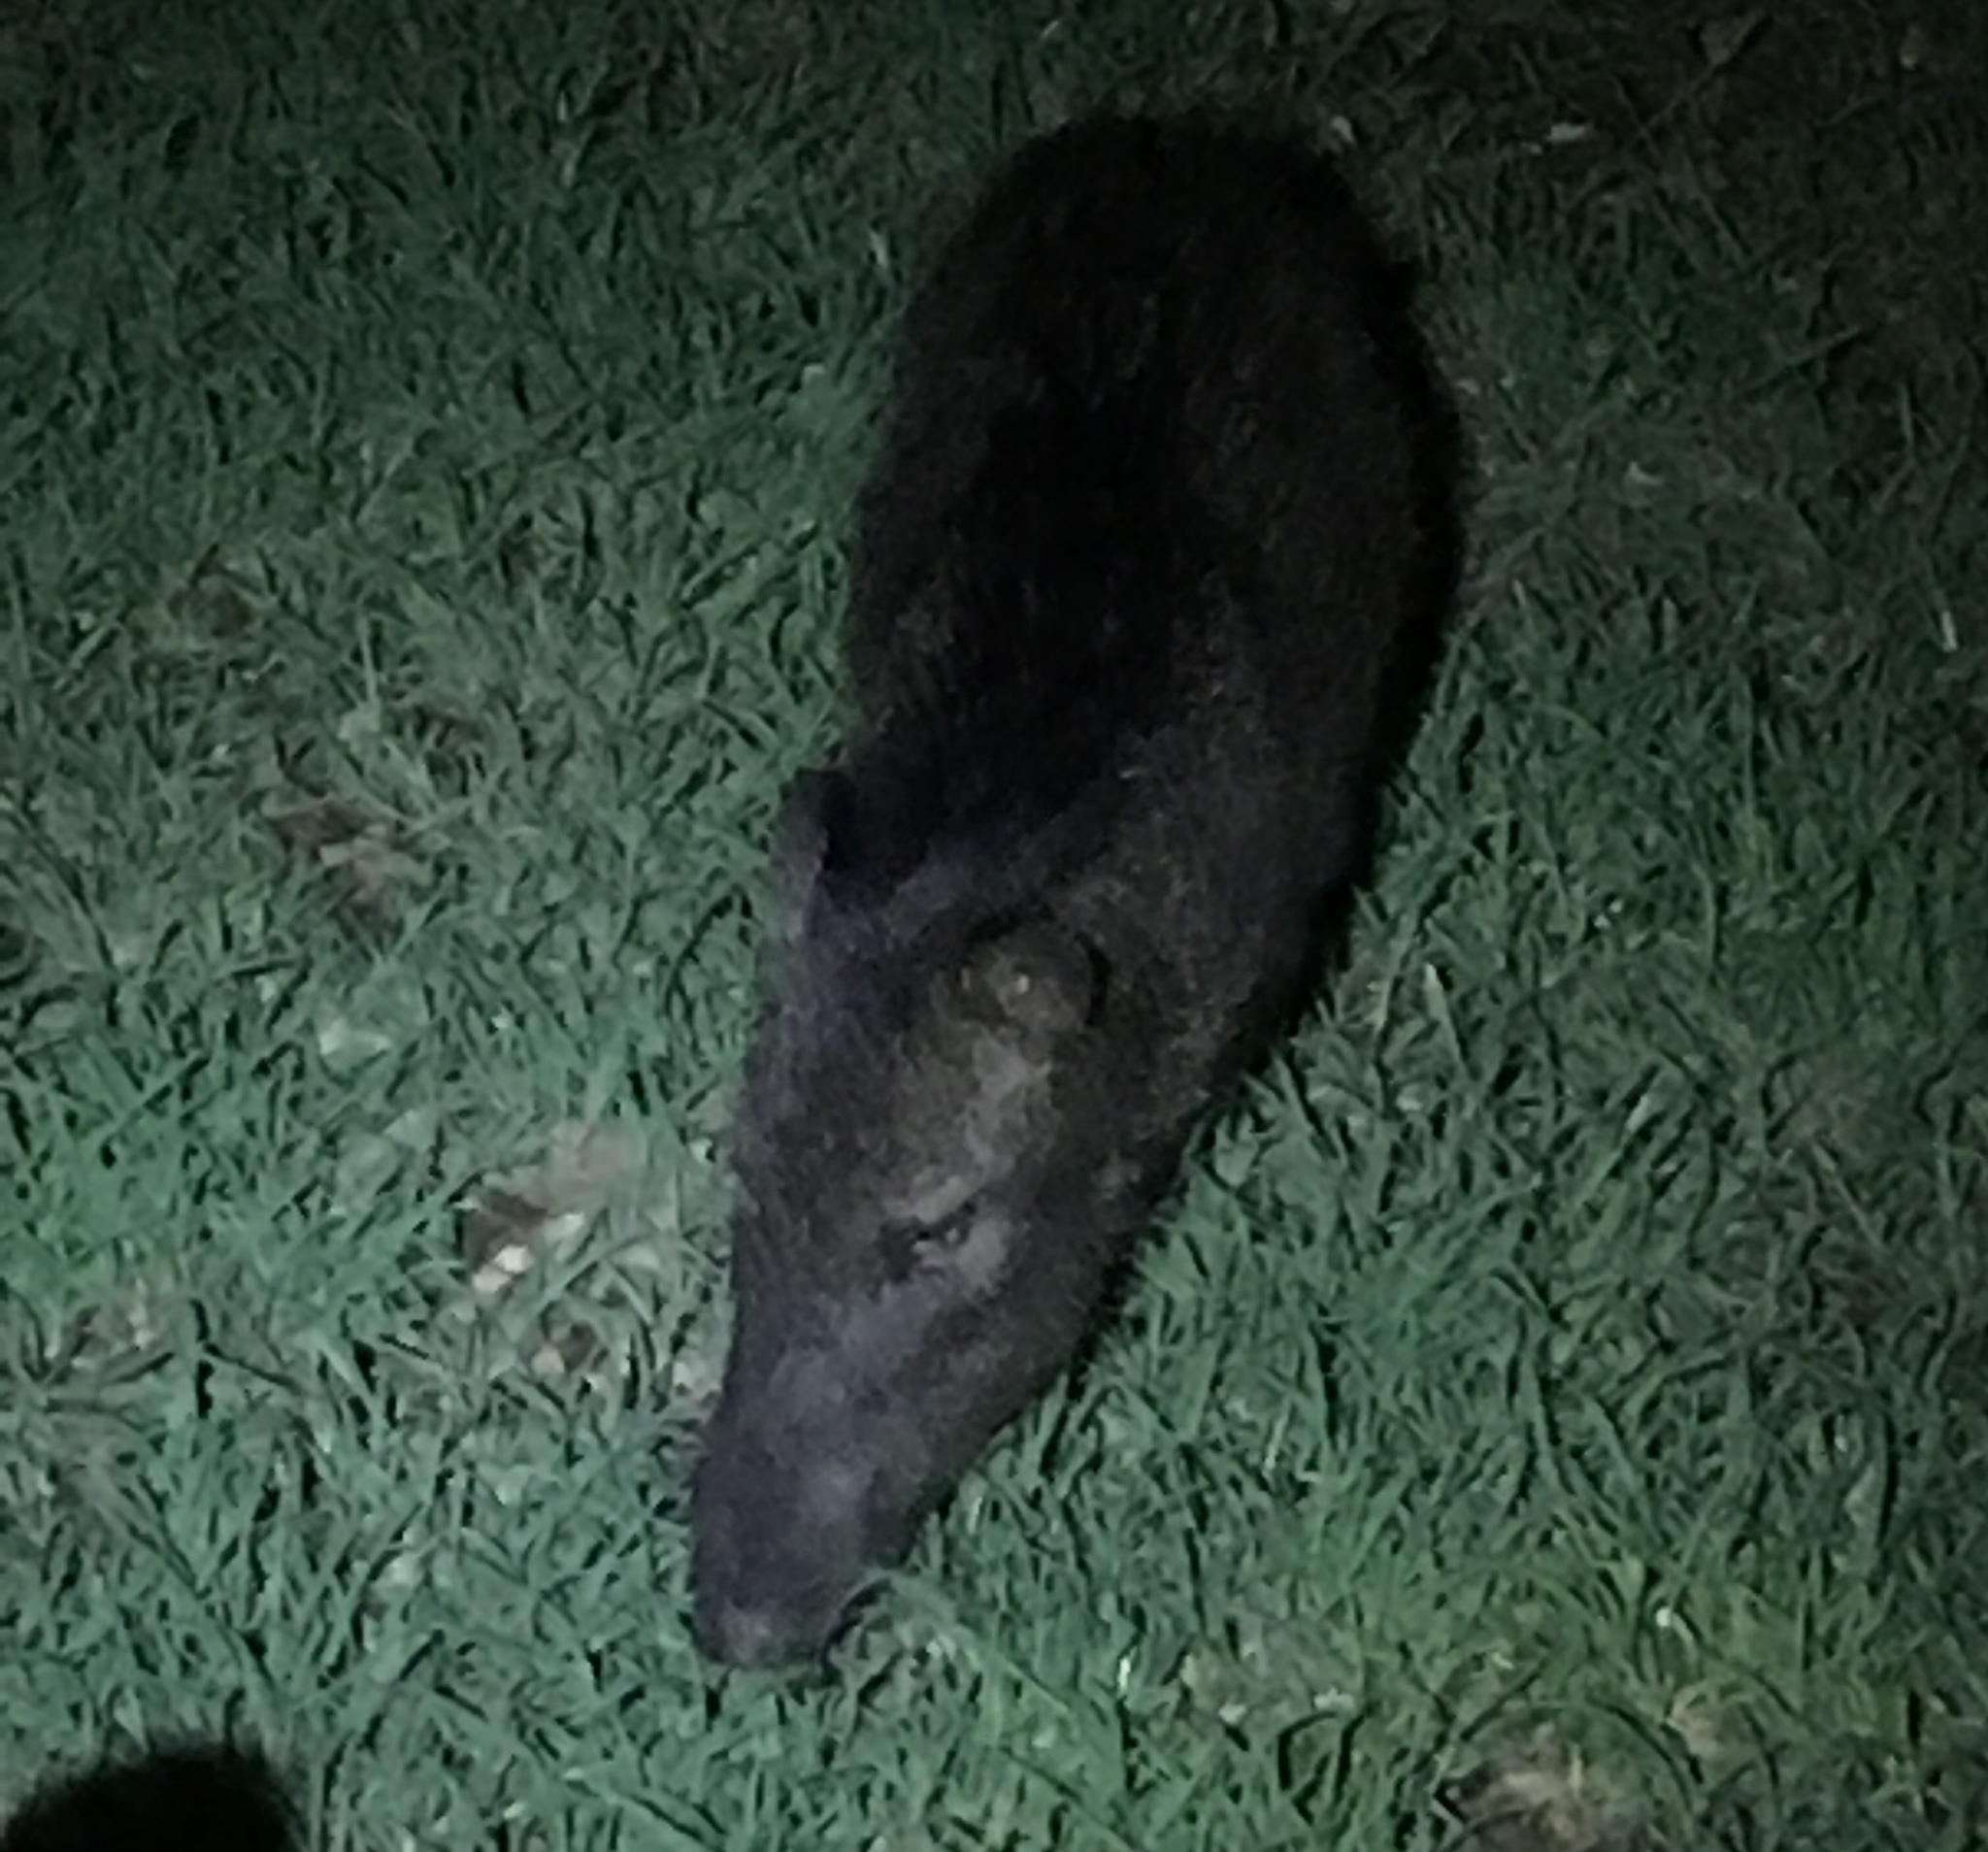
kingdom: Animalia
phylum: Chordata
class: Mammalia
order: Artiodactyla
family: Tayassuidae
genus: Pecari
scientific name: Pecari tajacu
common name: Collared peccary
